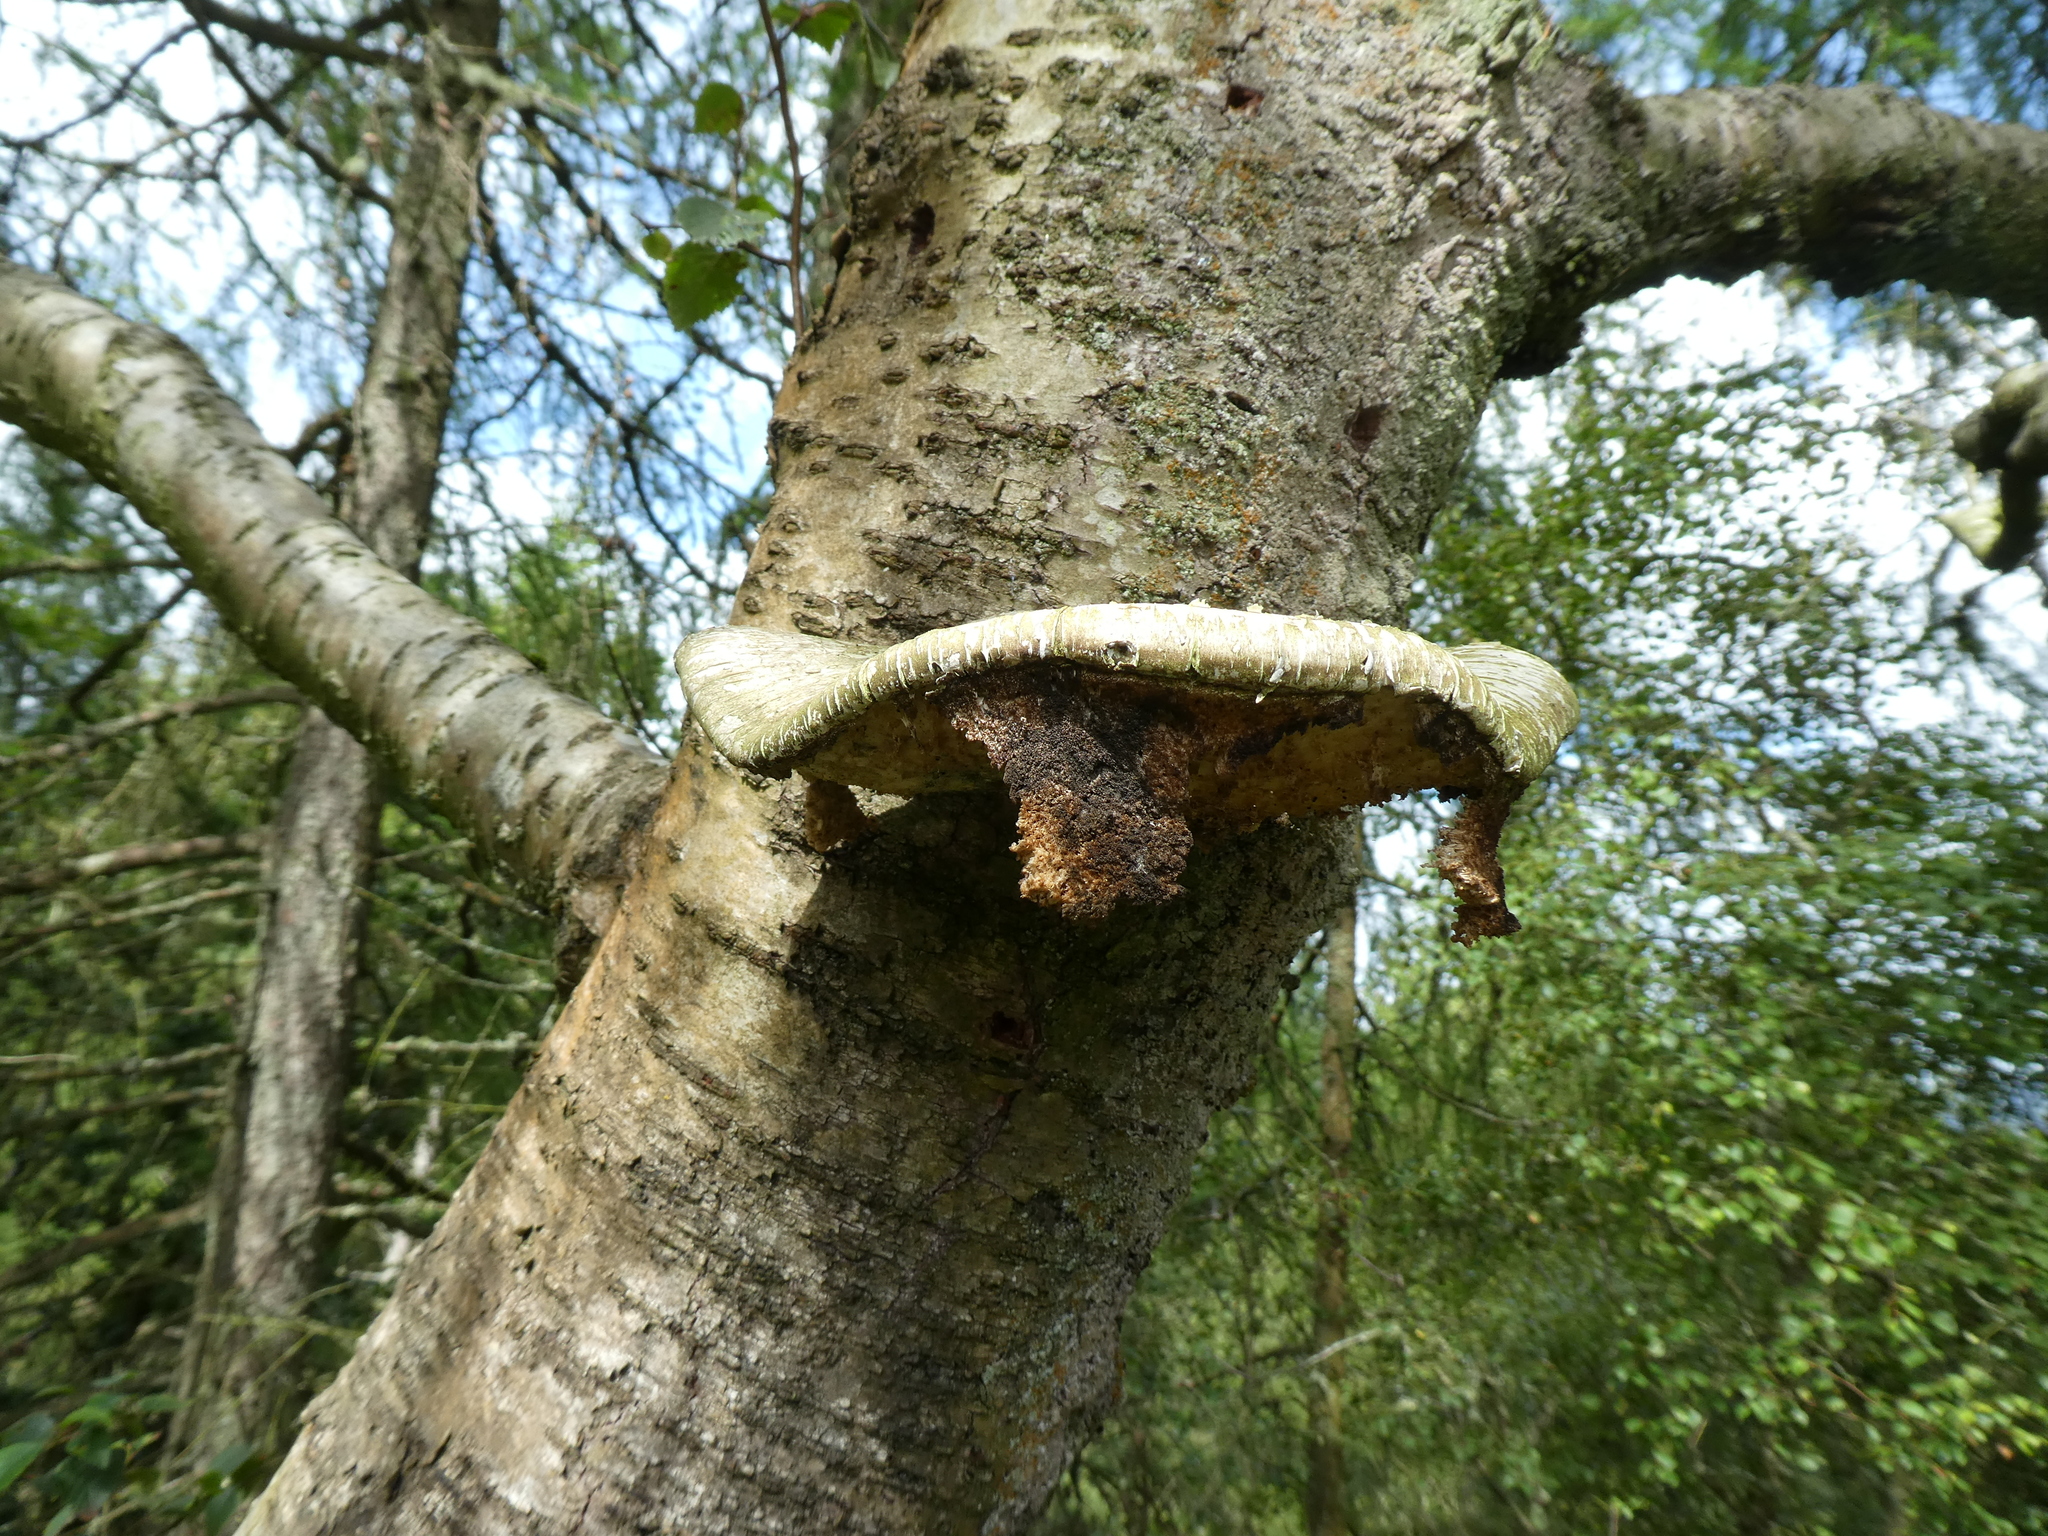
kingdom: Fungi
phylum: Basidiomycota
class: Agaricomycetes
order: Polyporales
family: Fomitopsidaceae
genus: Fomitopsis
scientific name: Fomitopsis betulina
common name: Birch polypore
